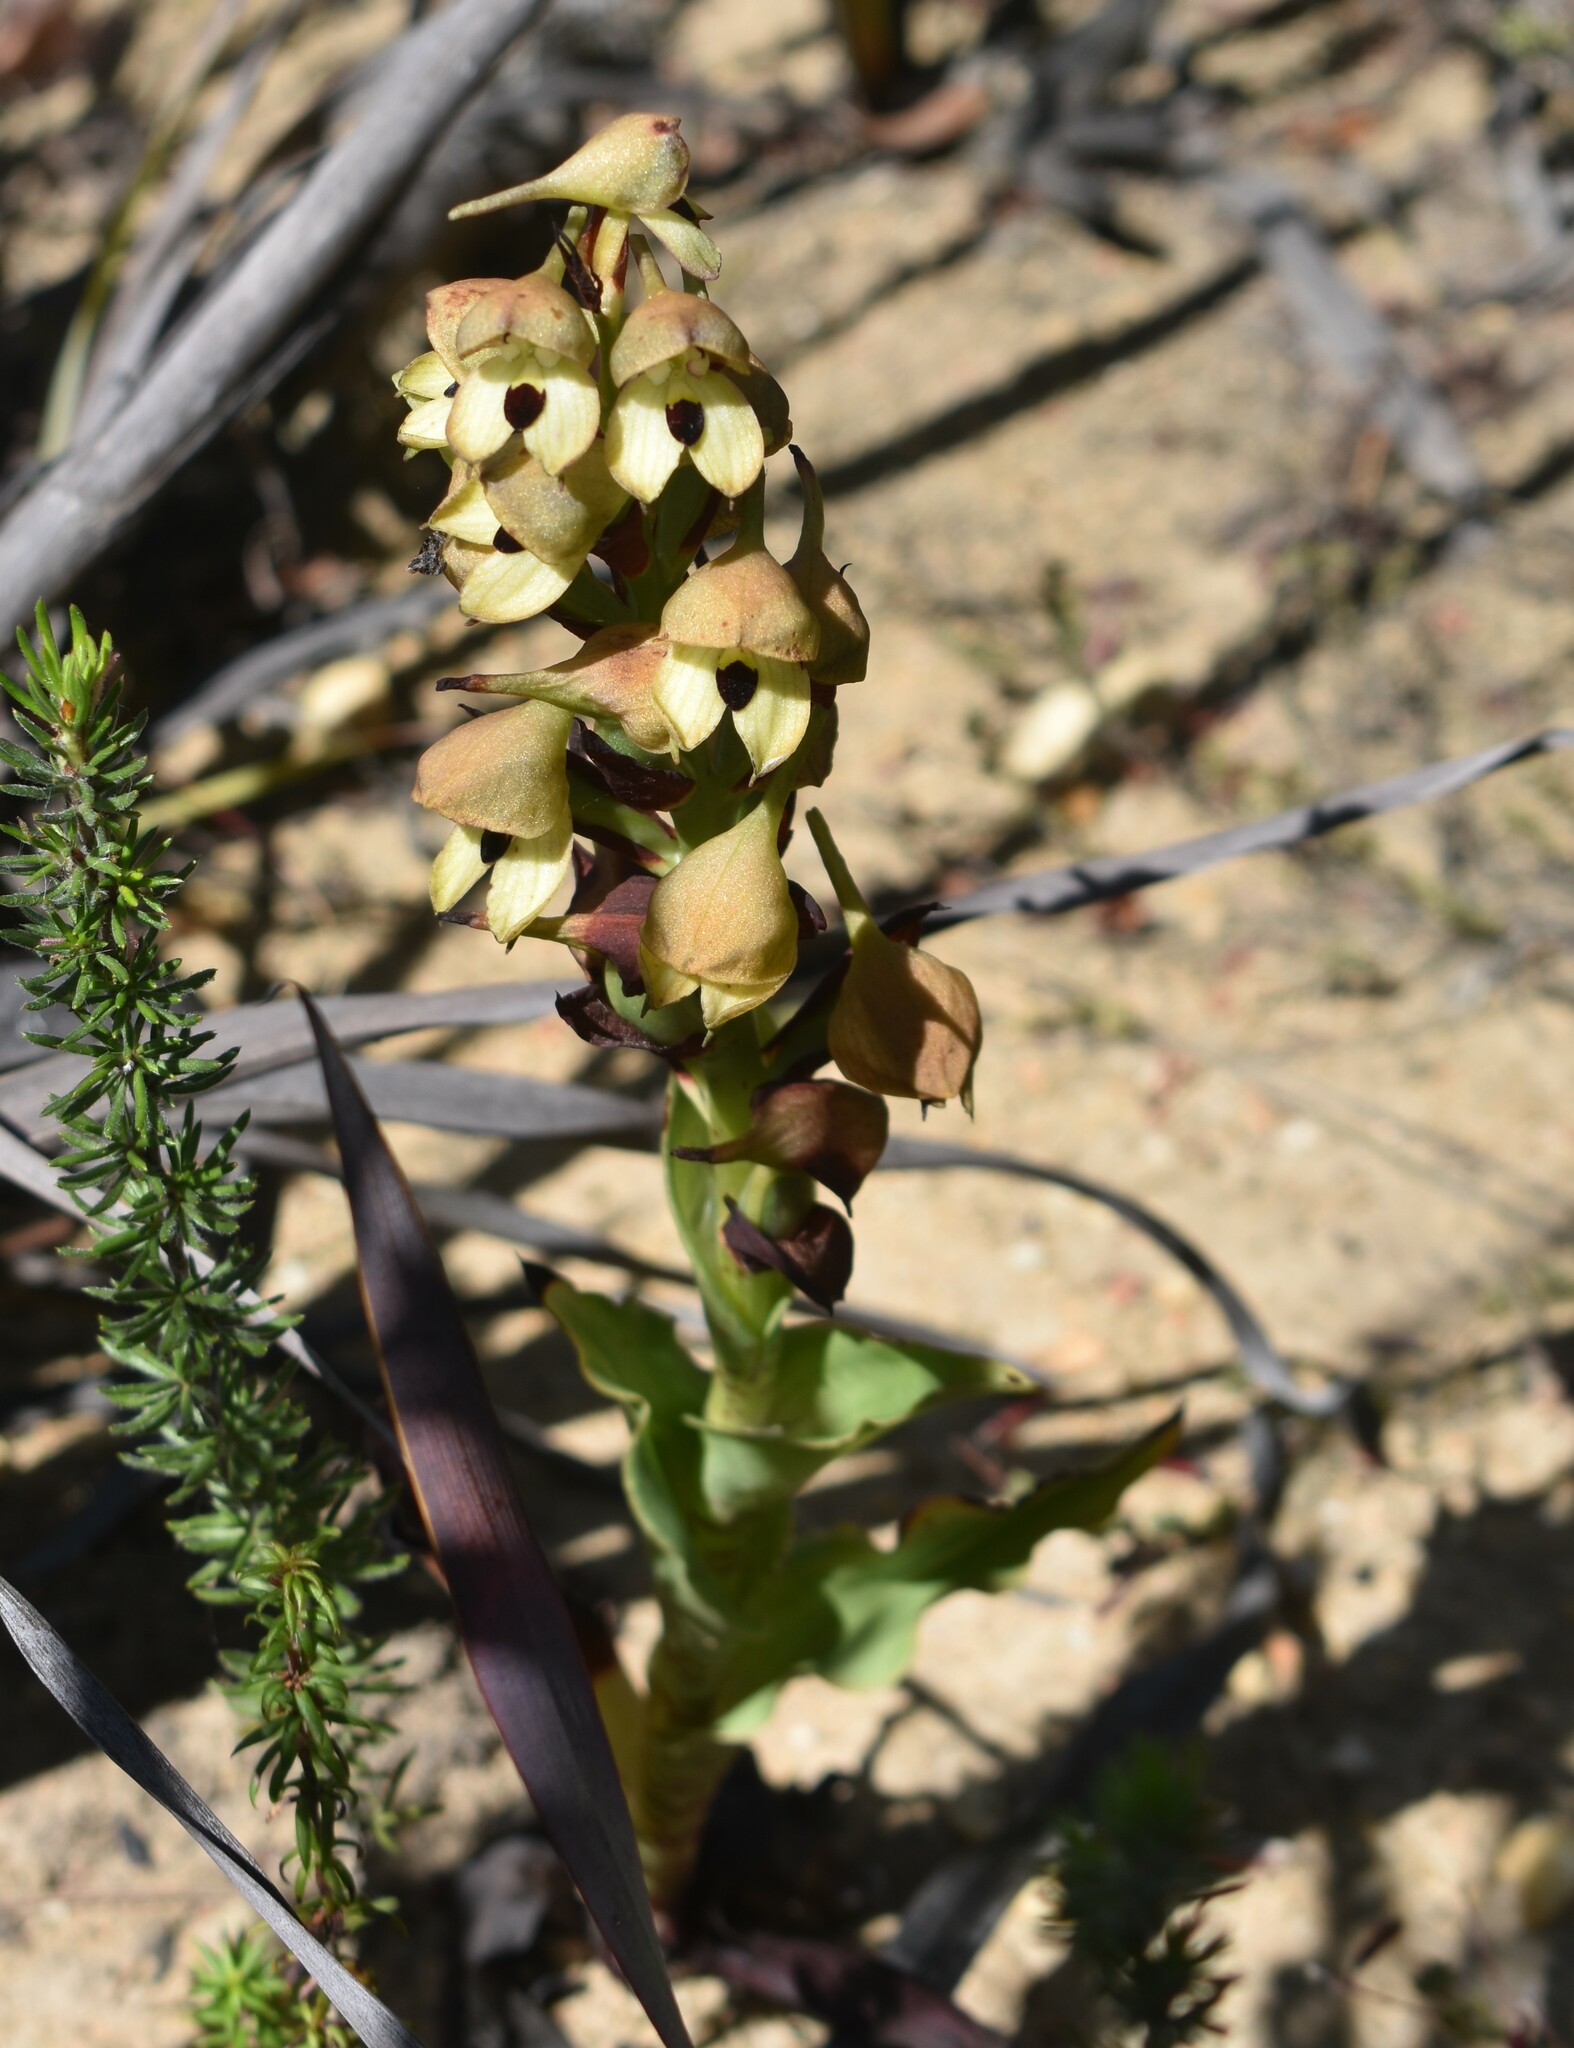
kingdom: Plantae
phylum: Tracheophyta
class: Liliopsida
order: Asparagales
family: Orchidaceae
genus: Disa
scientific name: Disa cornuta
